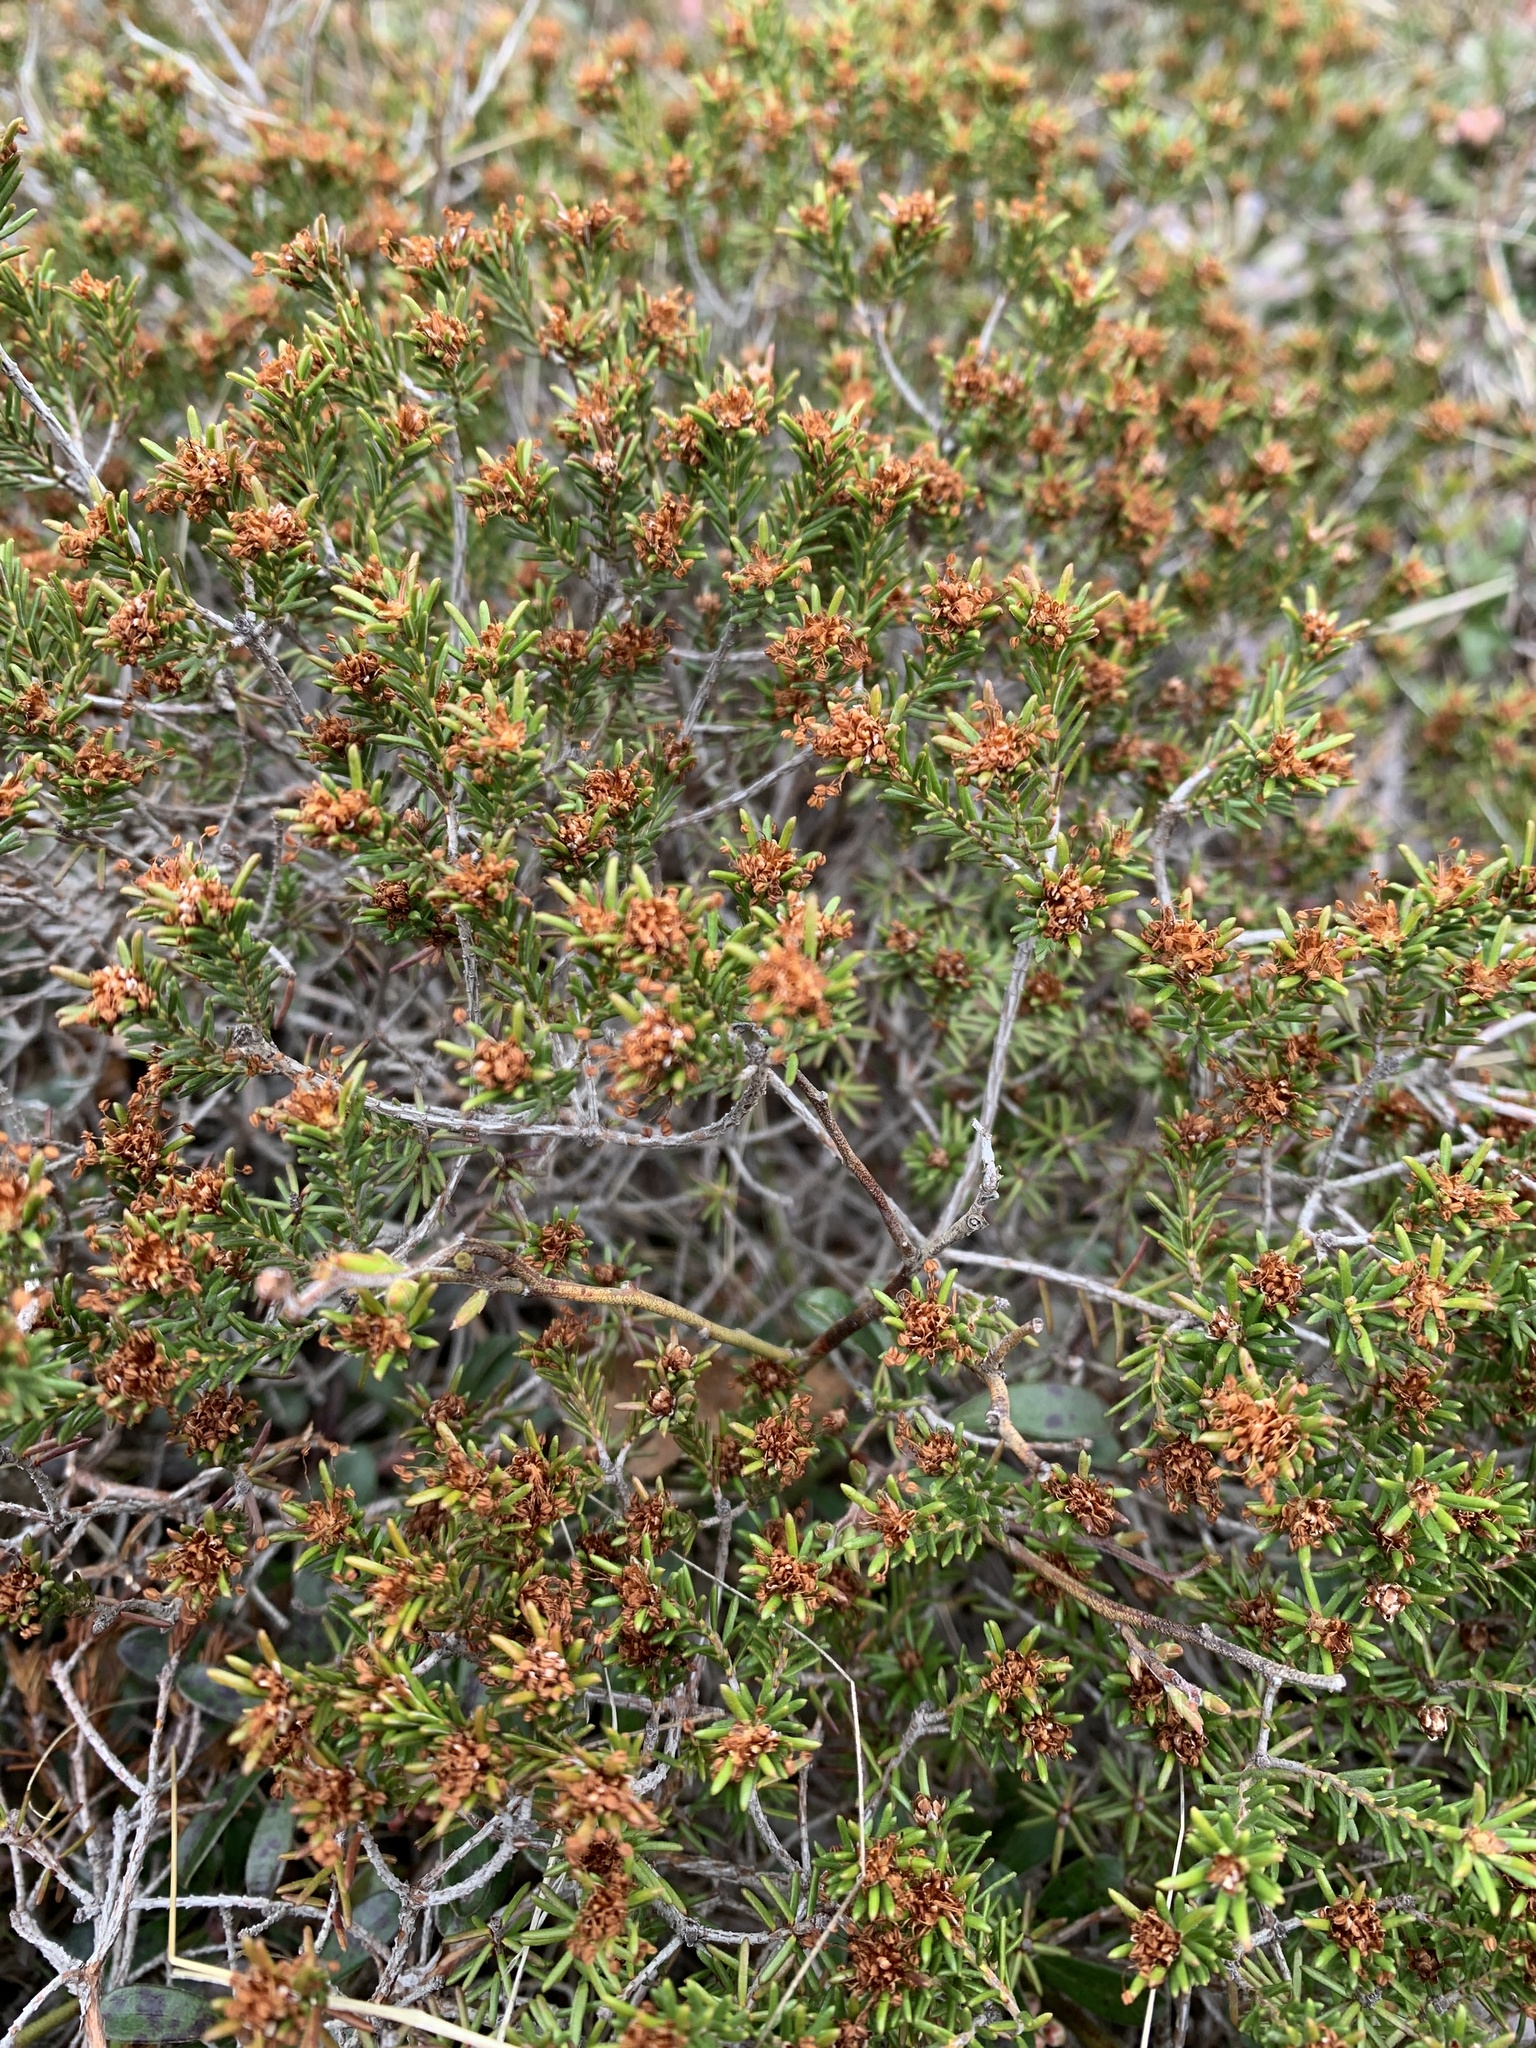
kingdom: Plantae
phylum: Tracheophyta
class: Magnoliopsida
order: Ericales
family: Ericaceae
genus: Corema
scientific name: Corema conradii
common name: Broom-crowberry
